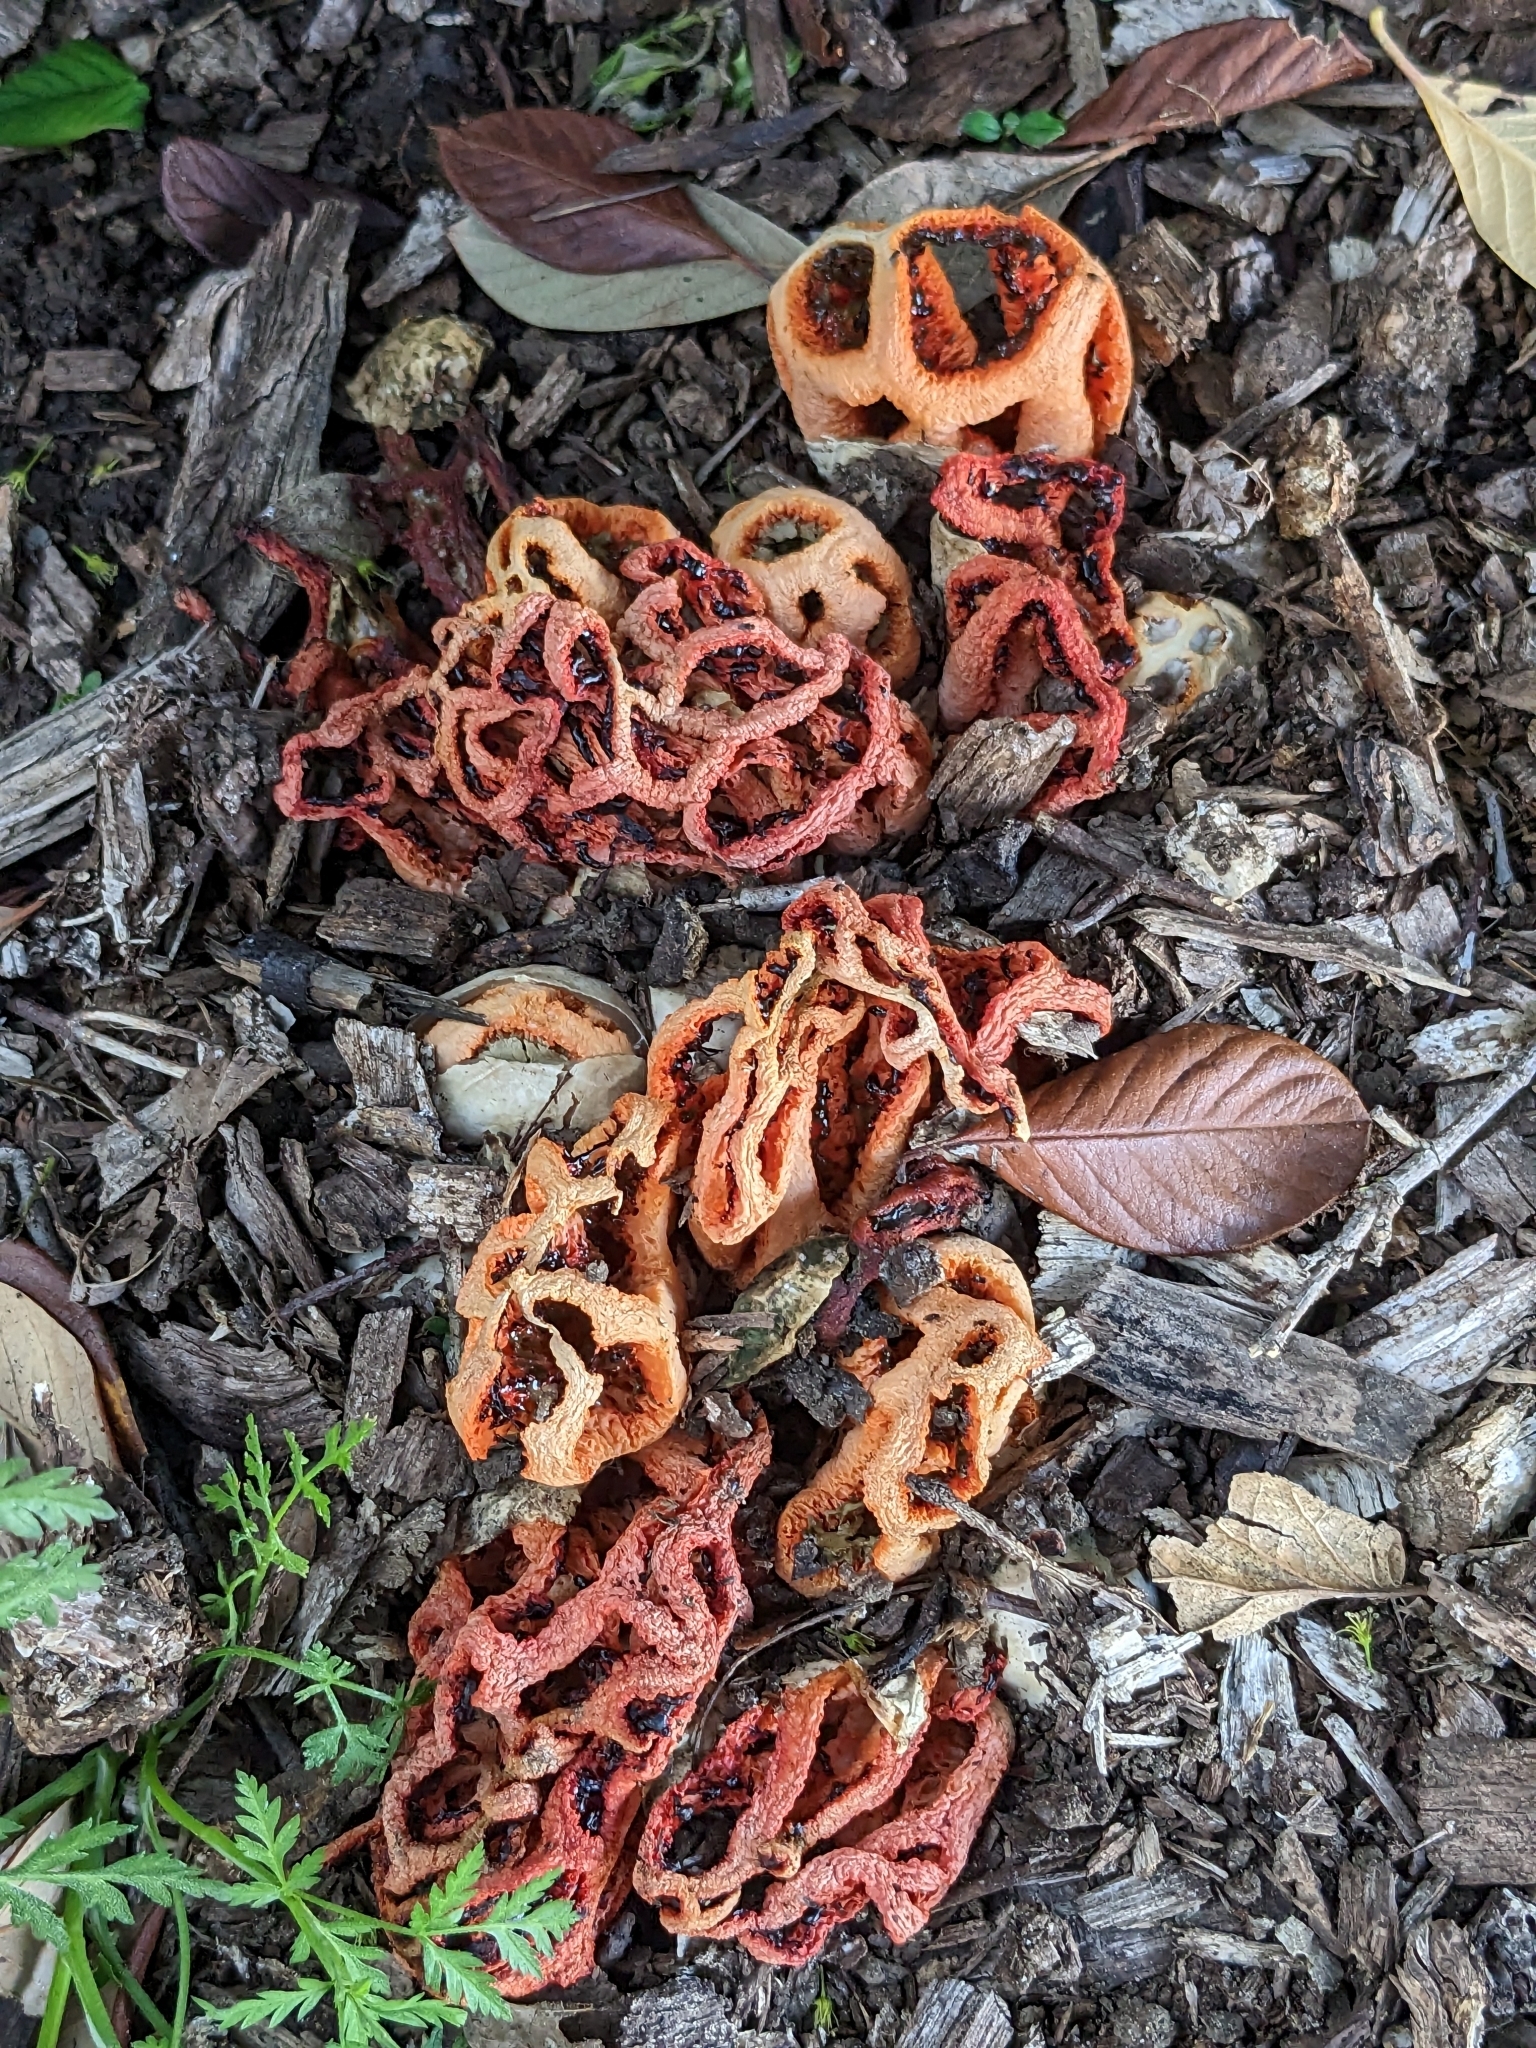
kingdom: Fungi
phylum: Basidiomycota
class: Agaricomycetes
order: Phallales
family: Phallaceae
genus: Clathrus
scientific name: Clathrus ruber
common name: Red cage
